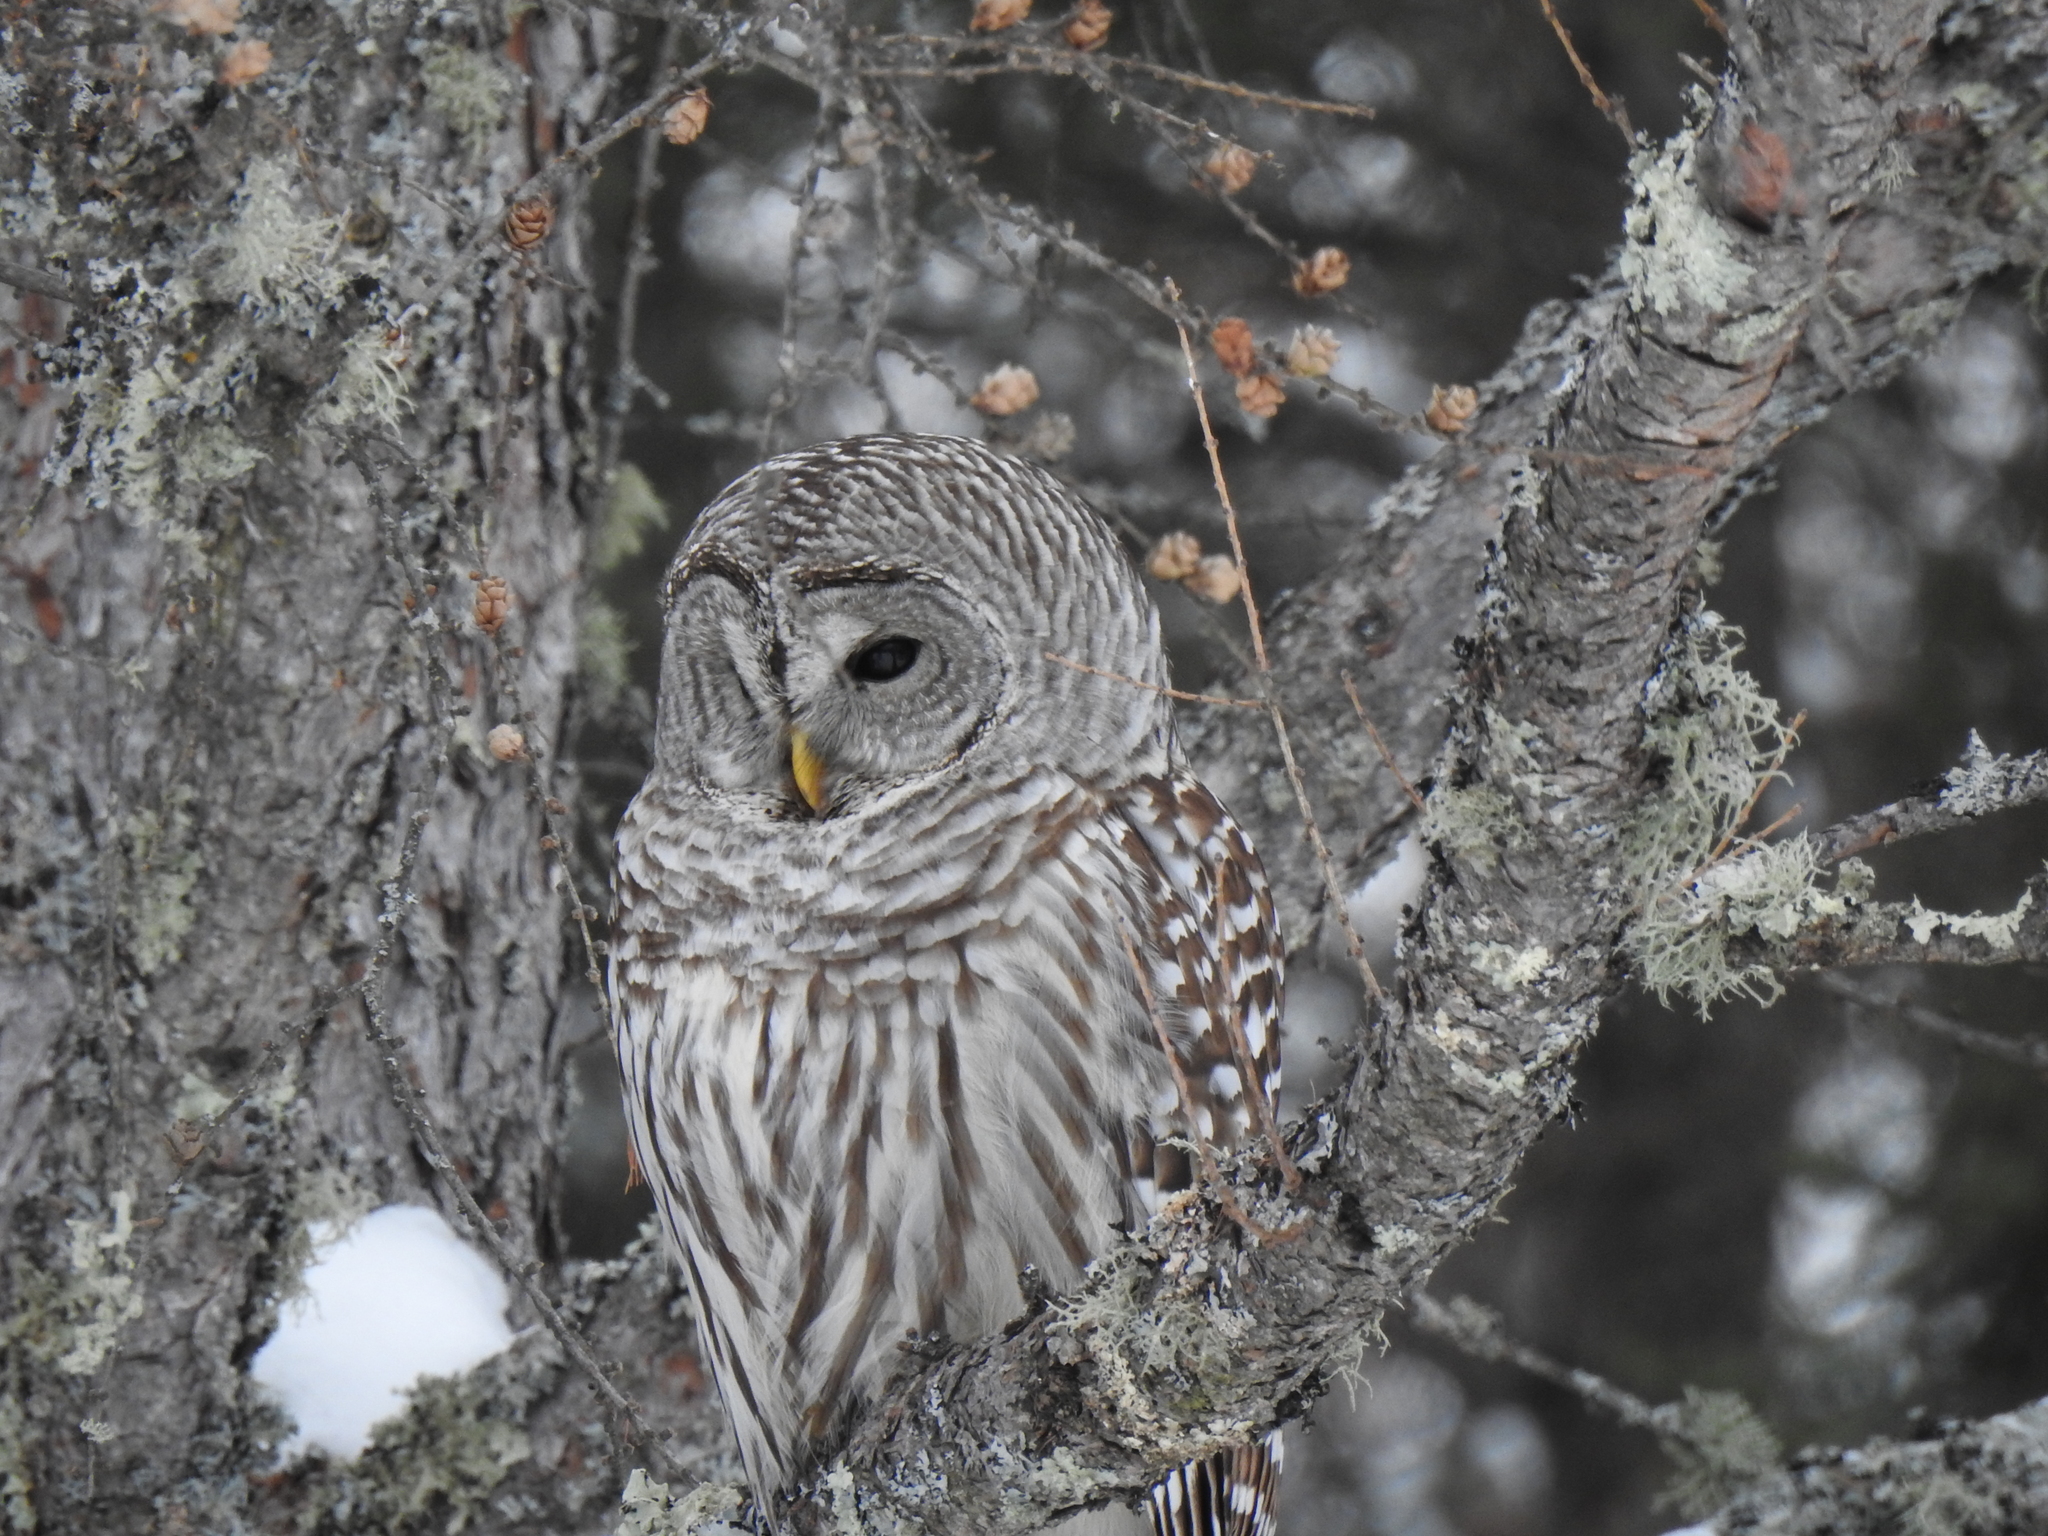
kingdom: Animalia
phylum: Chordata
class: Aves
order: Strigiformes
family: Strigidae
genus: Strix
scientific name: Strix varia
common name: Barred owl
